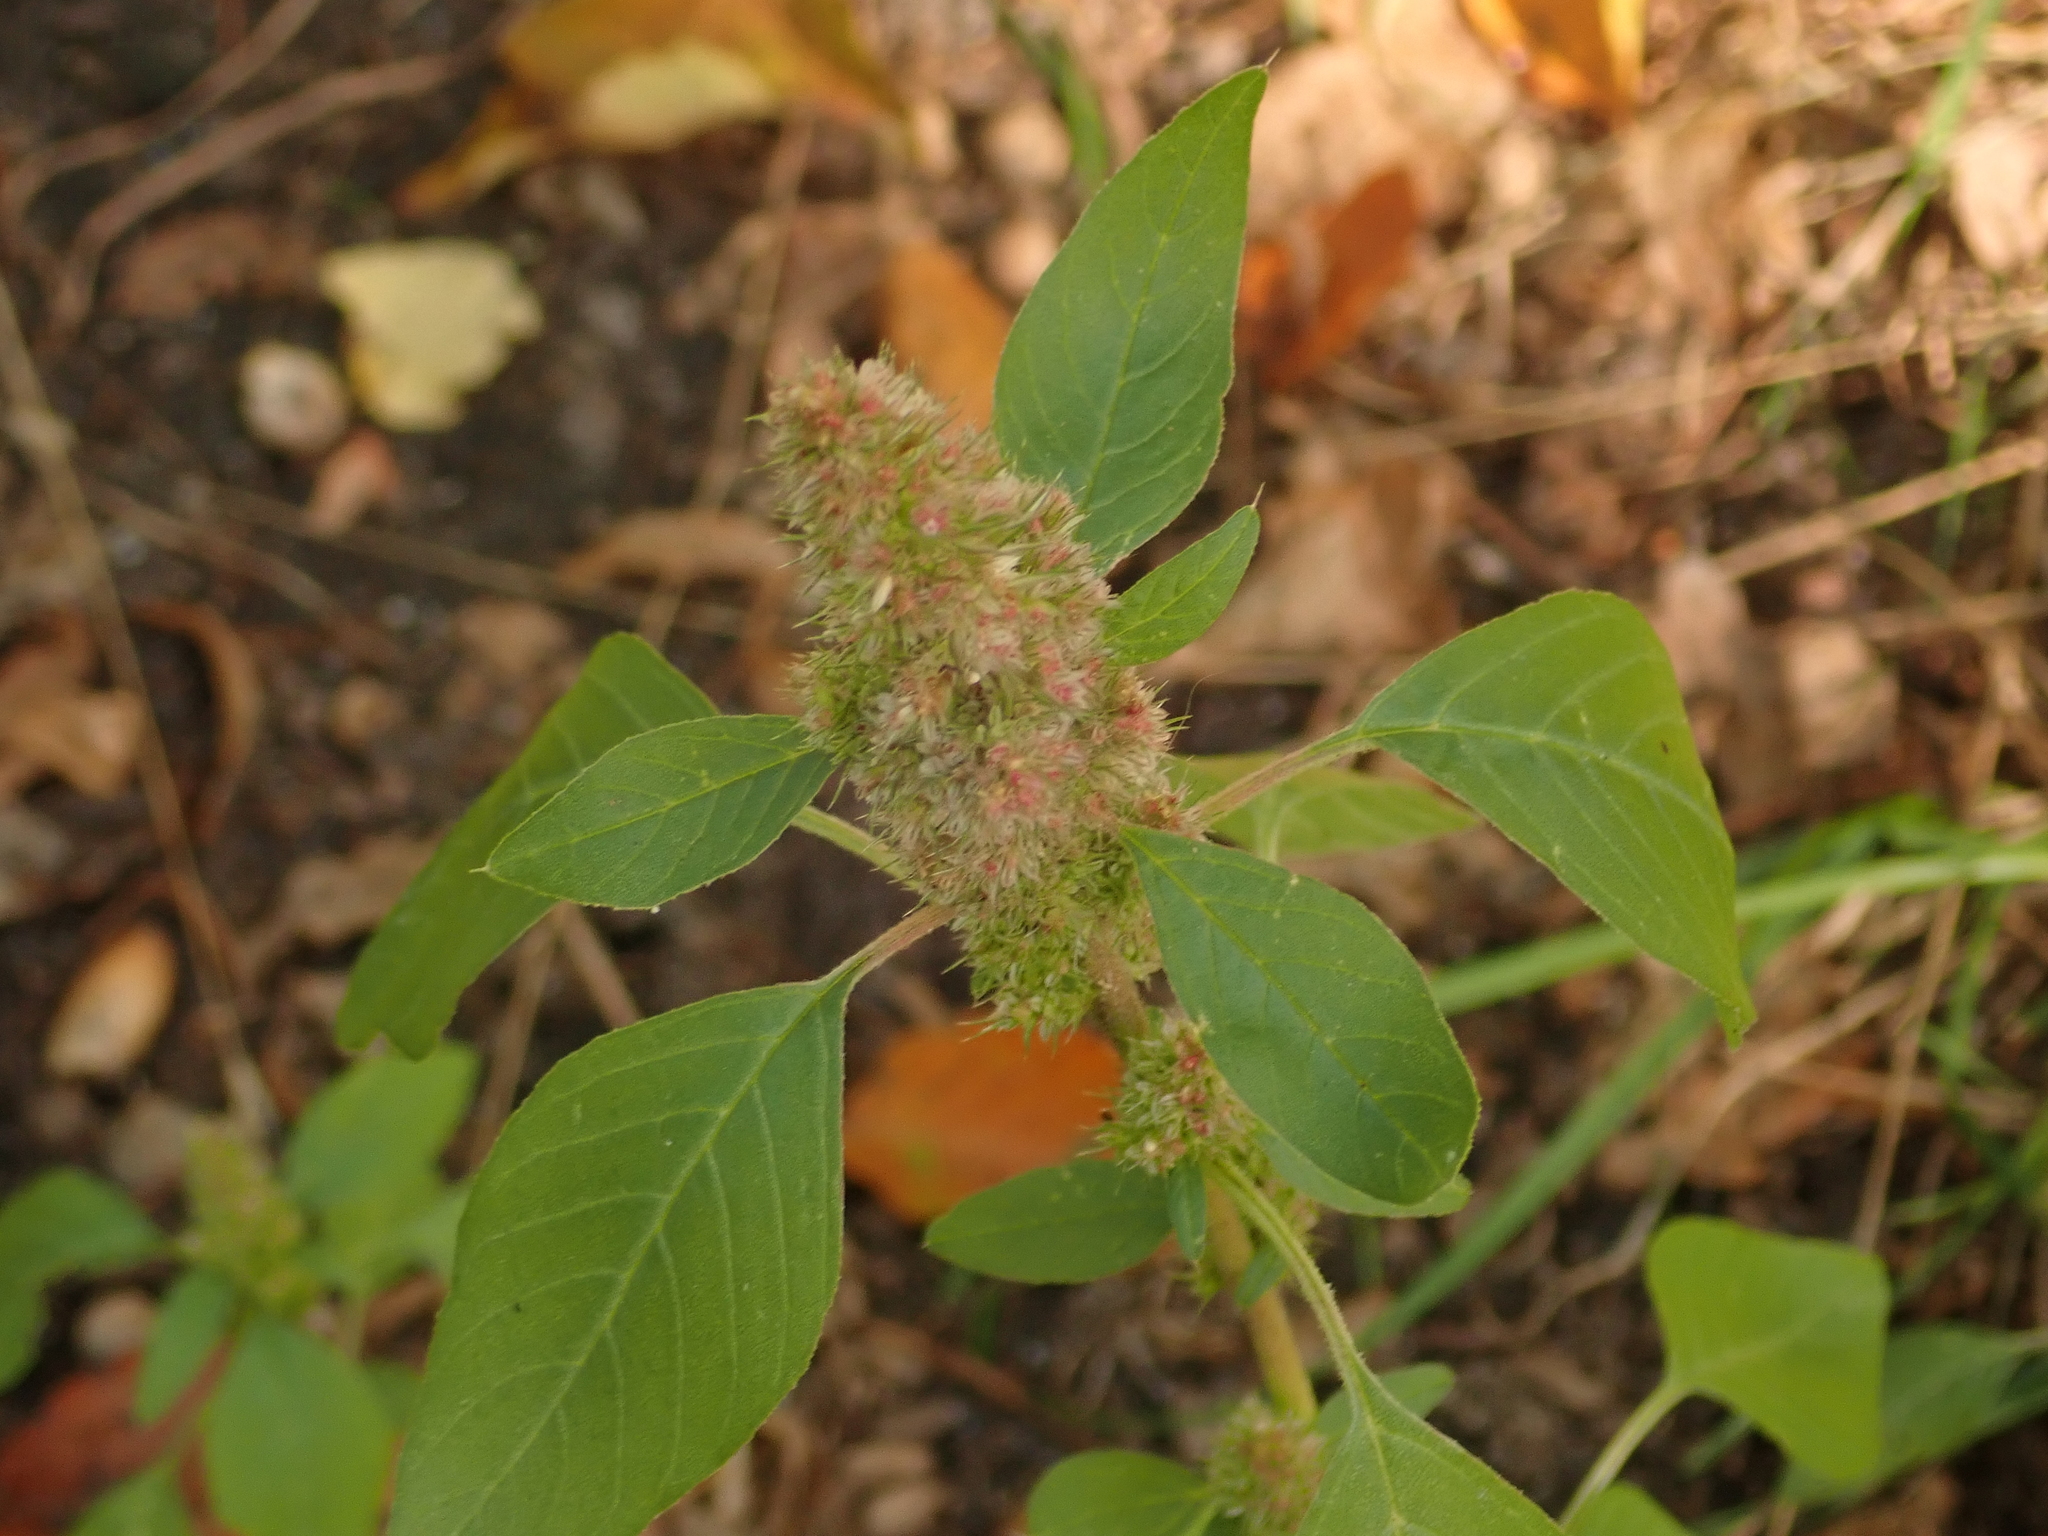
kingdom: Plantae
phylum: Tracheophyta
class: Magnoliopsida
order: Caryophyllales
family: Amaranthaceae
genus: Amaranthus
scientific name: Amaranthus retroflexus
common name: Redroot amaranth
